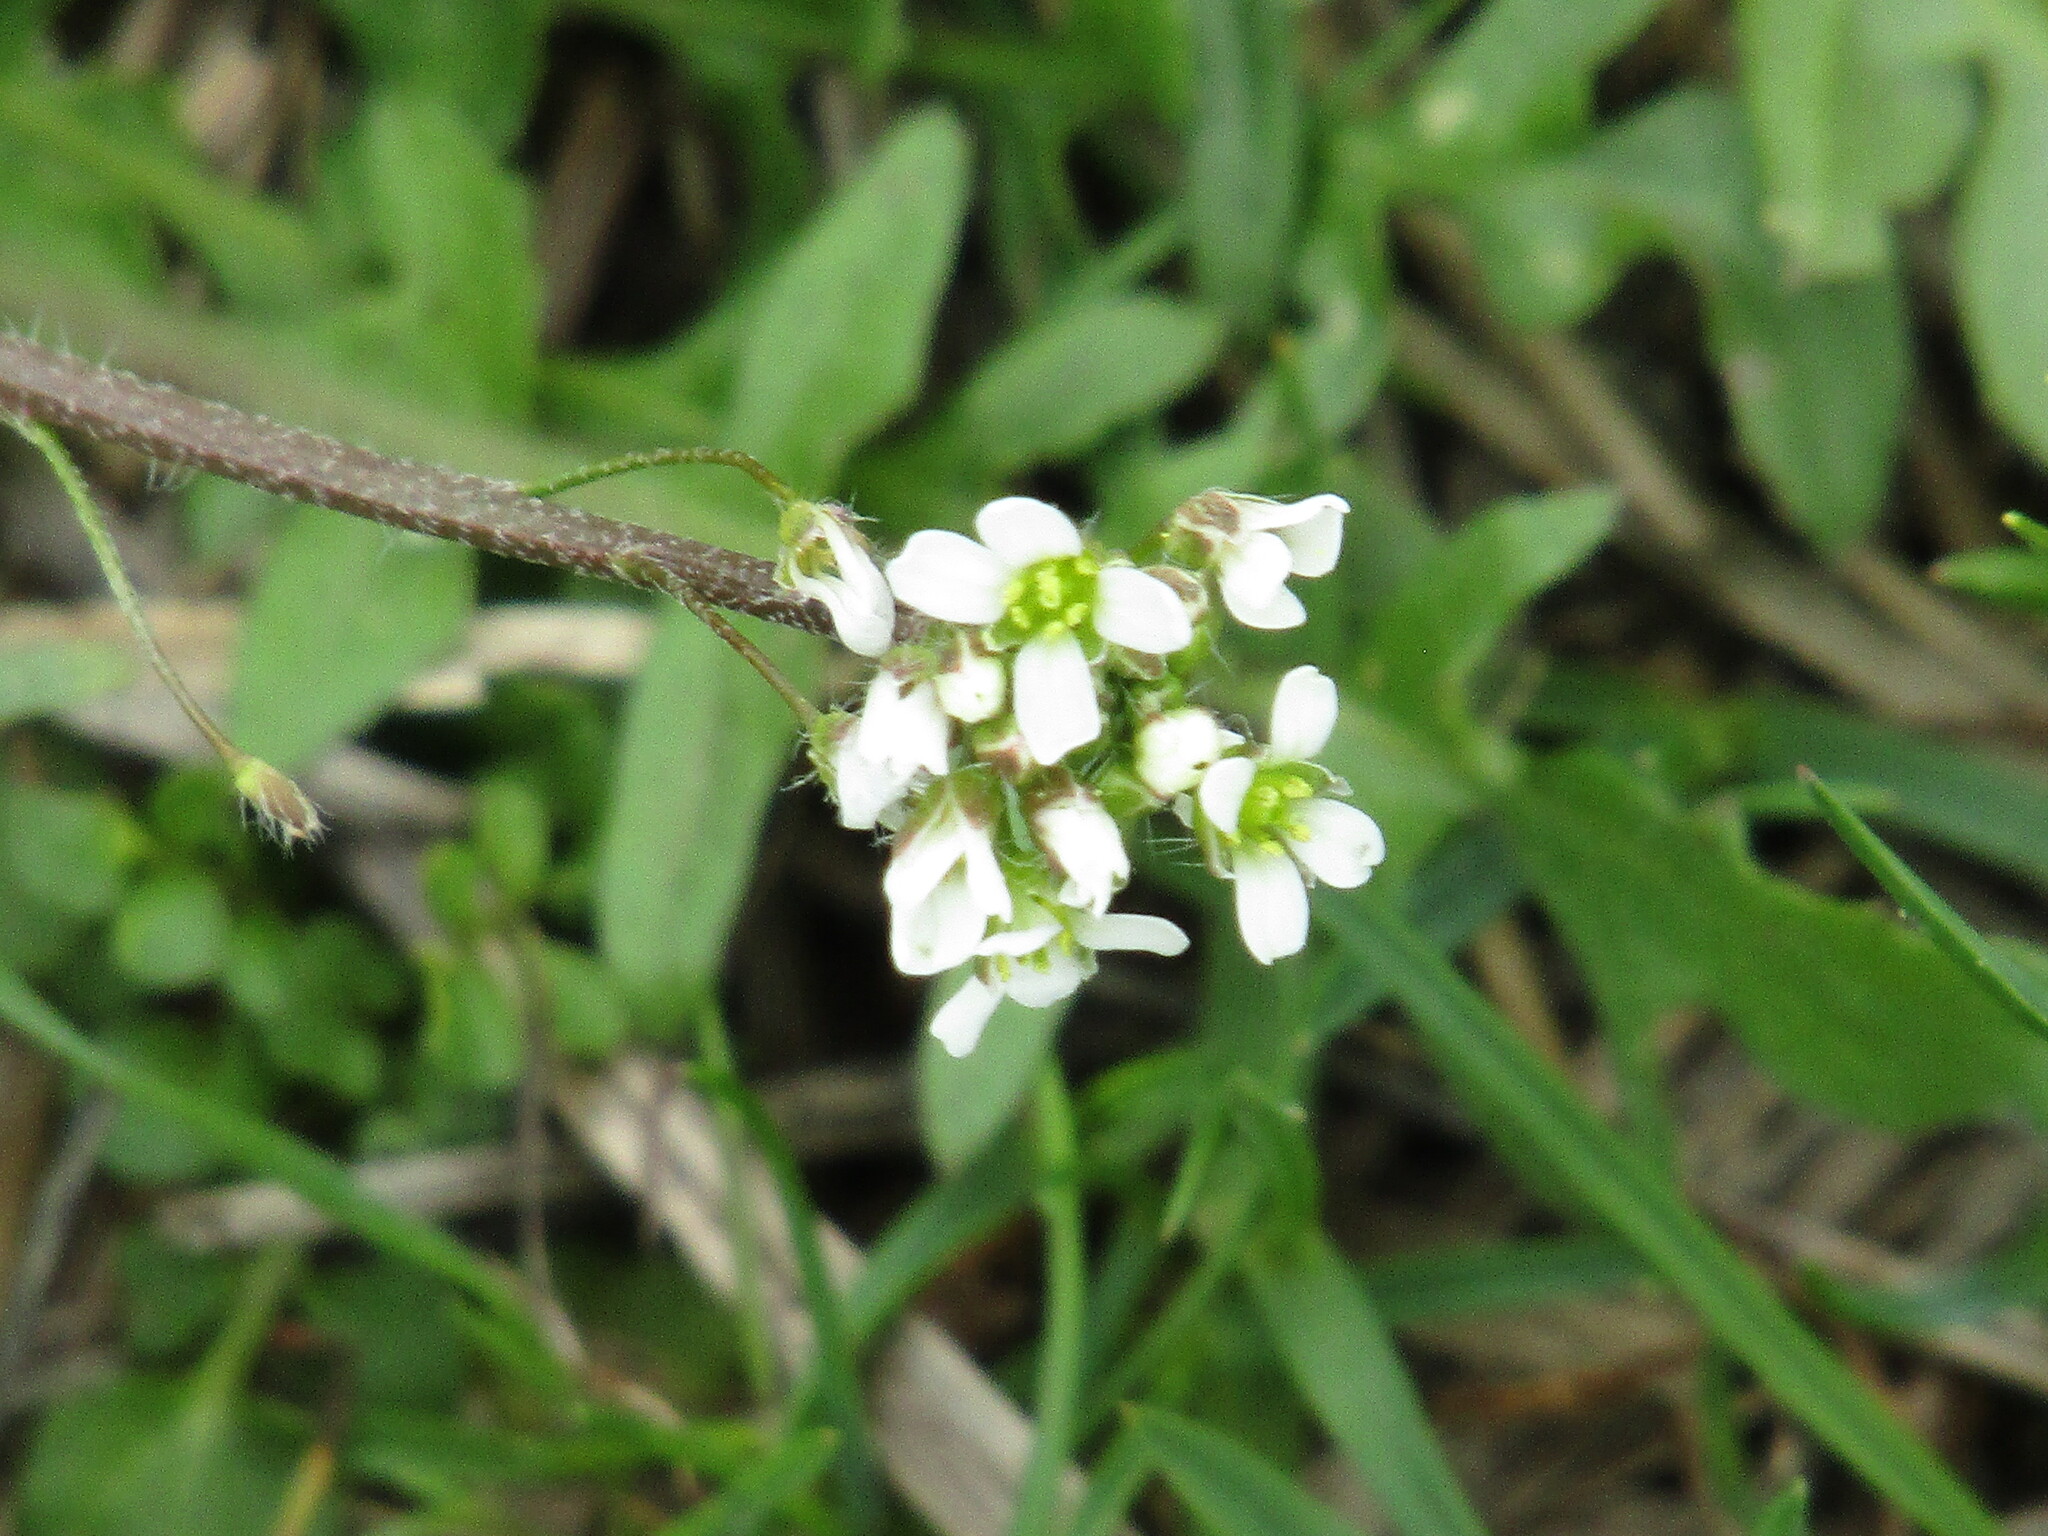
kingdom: Plantae
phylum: Tracheophyta
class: Magnoliopsida
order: Brassicales
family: Brassicaceae
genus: Capsella
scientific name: Capsella bursa-pastoris
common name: Shepherd's purse
